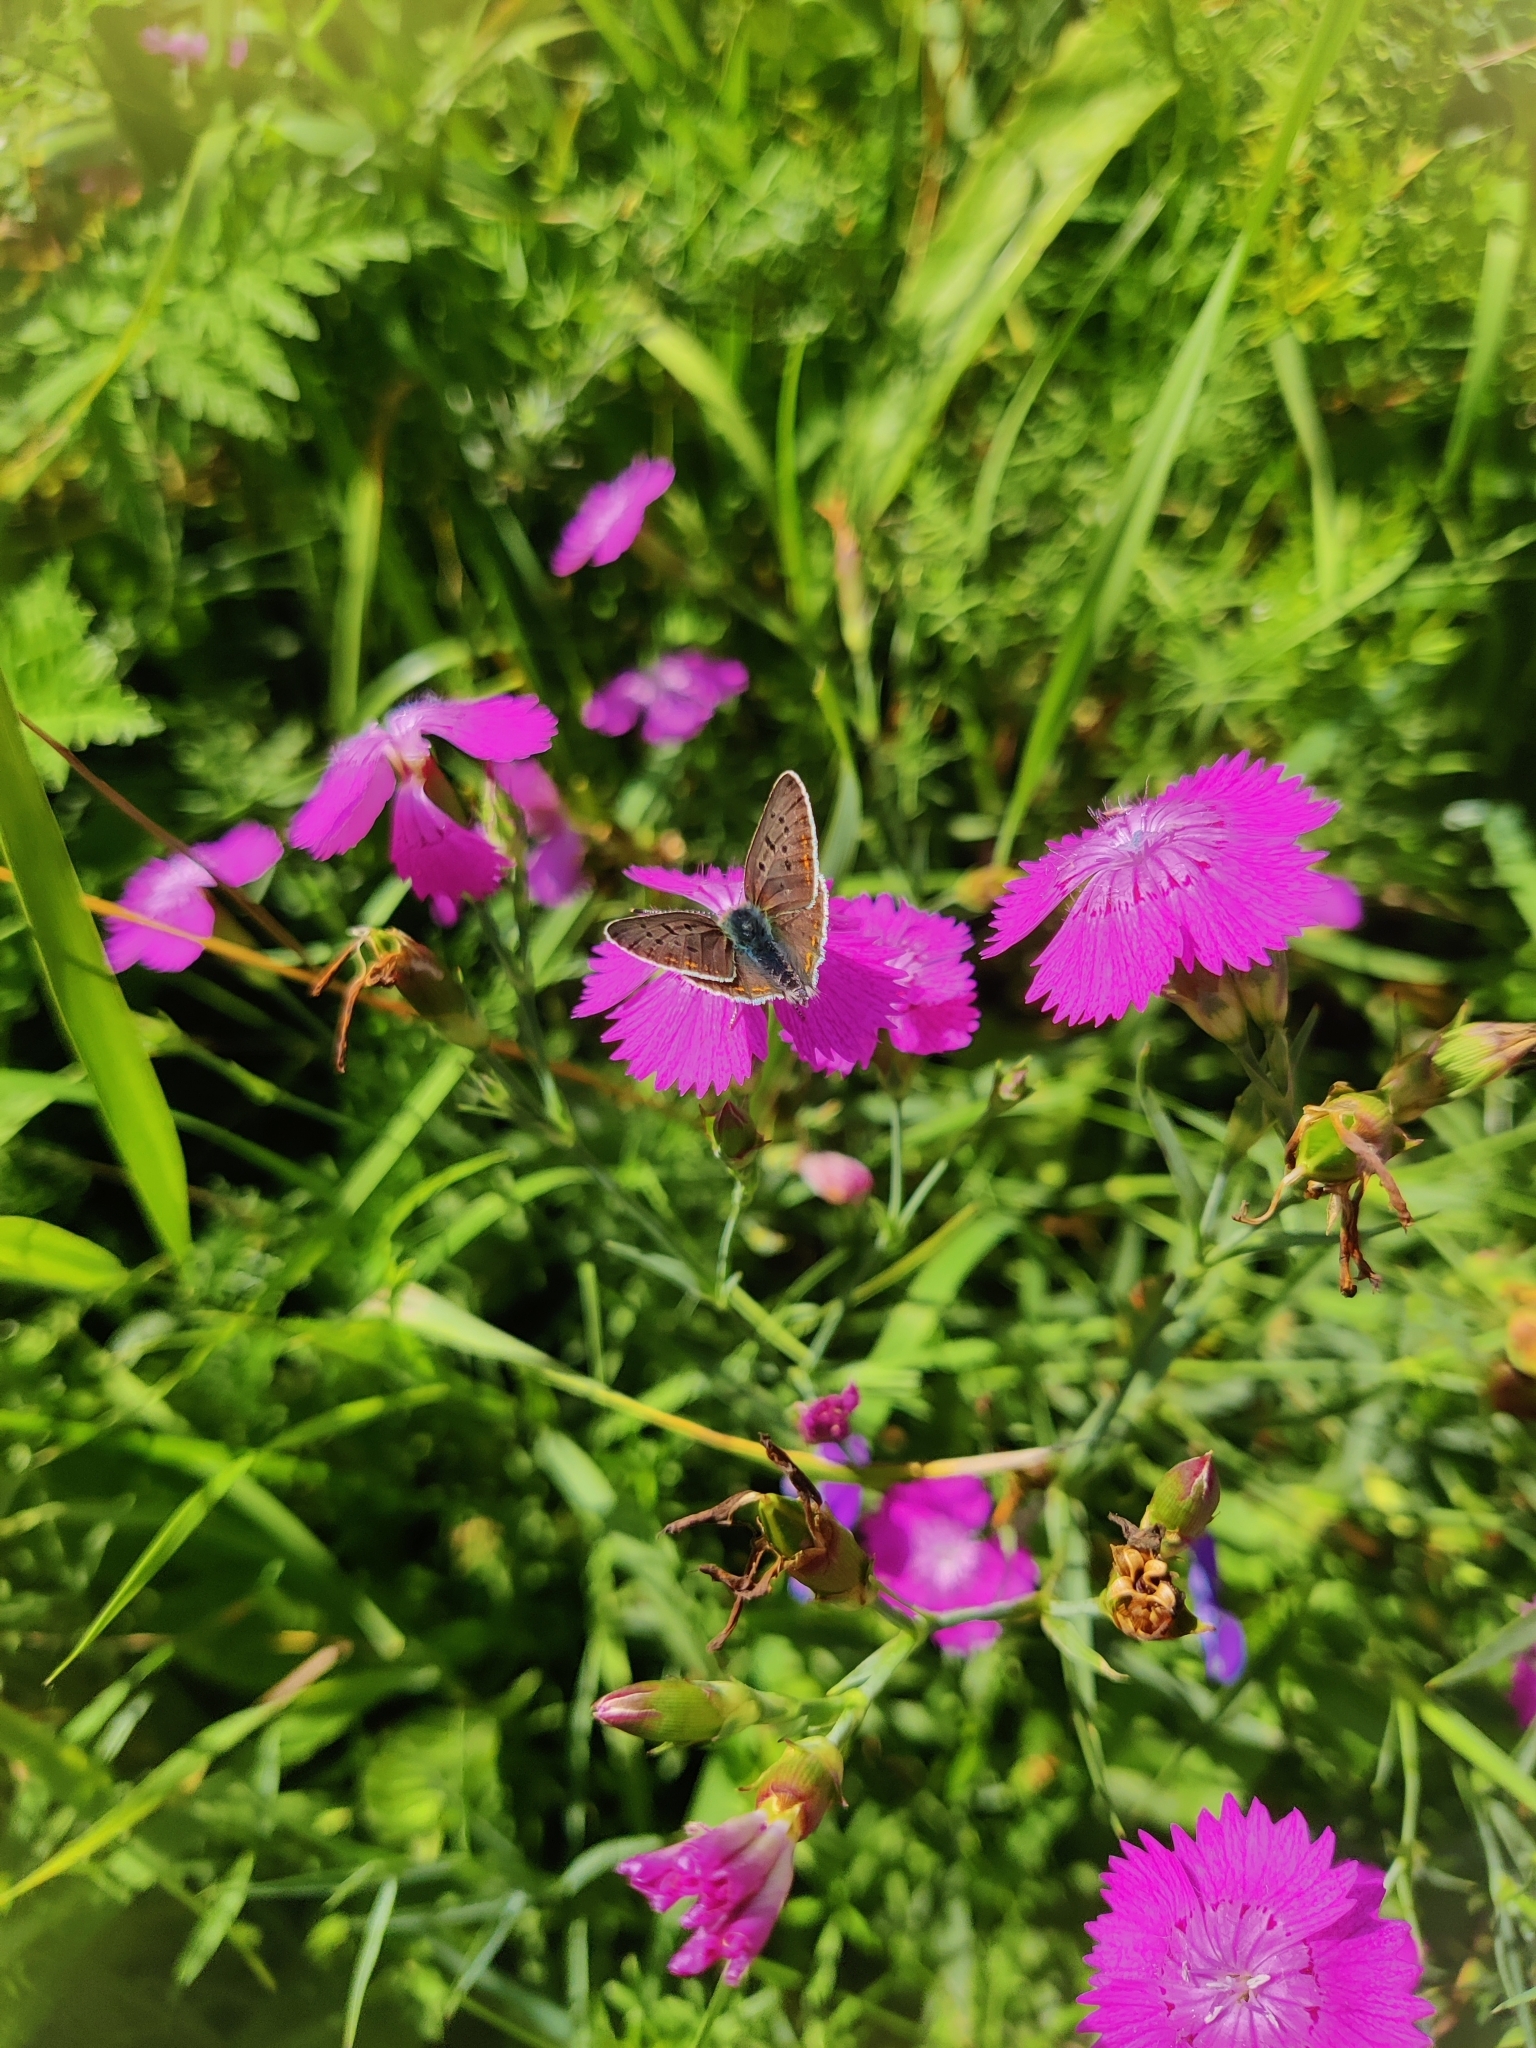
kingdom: Animalia
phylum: Arthropoda
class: Insecta
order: Lepidoptera
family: Lycaenidae
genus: Loweia
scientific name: Loweia tityrus
